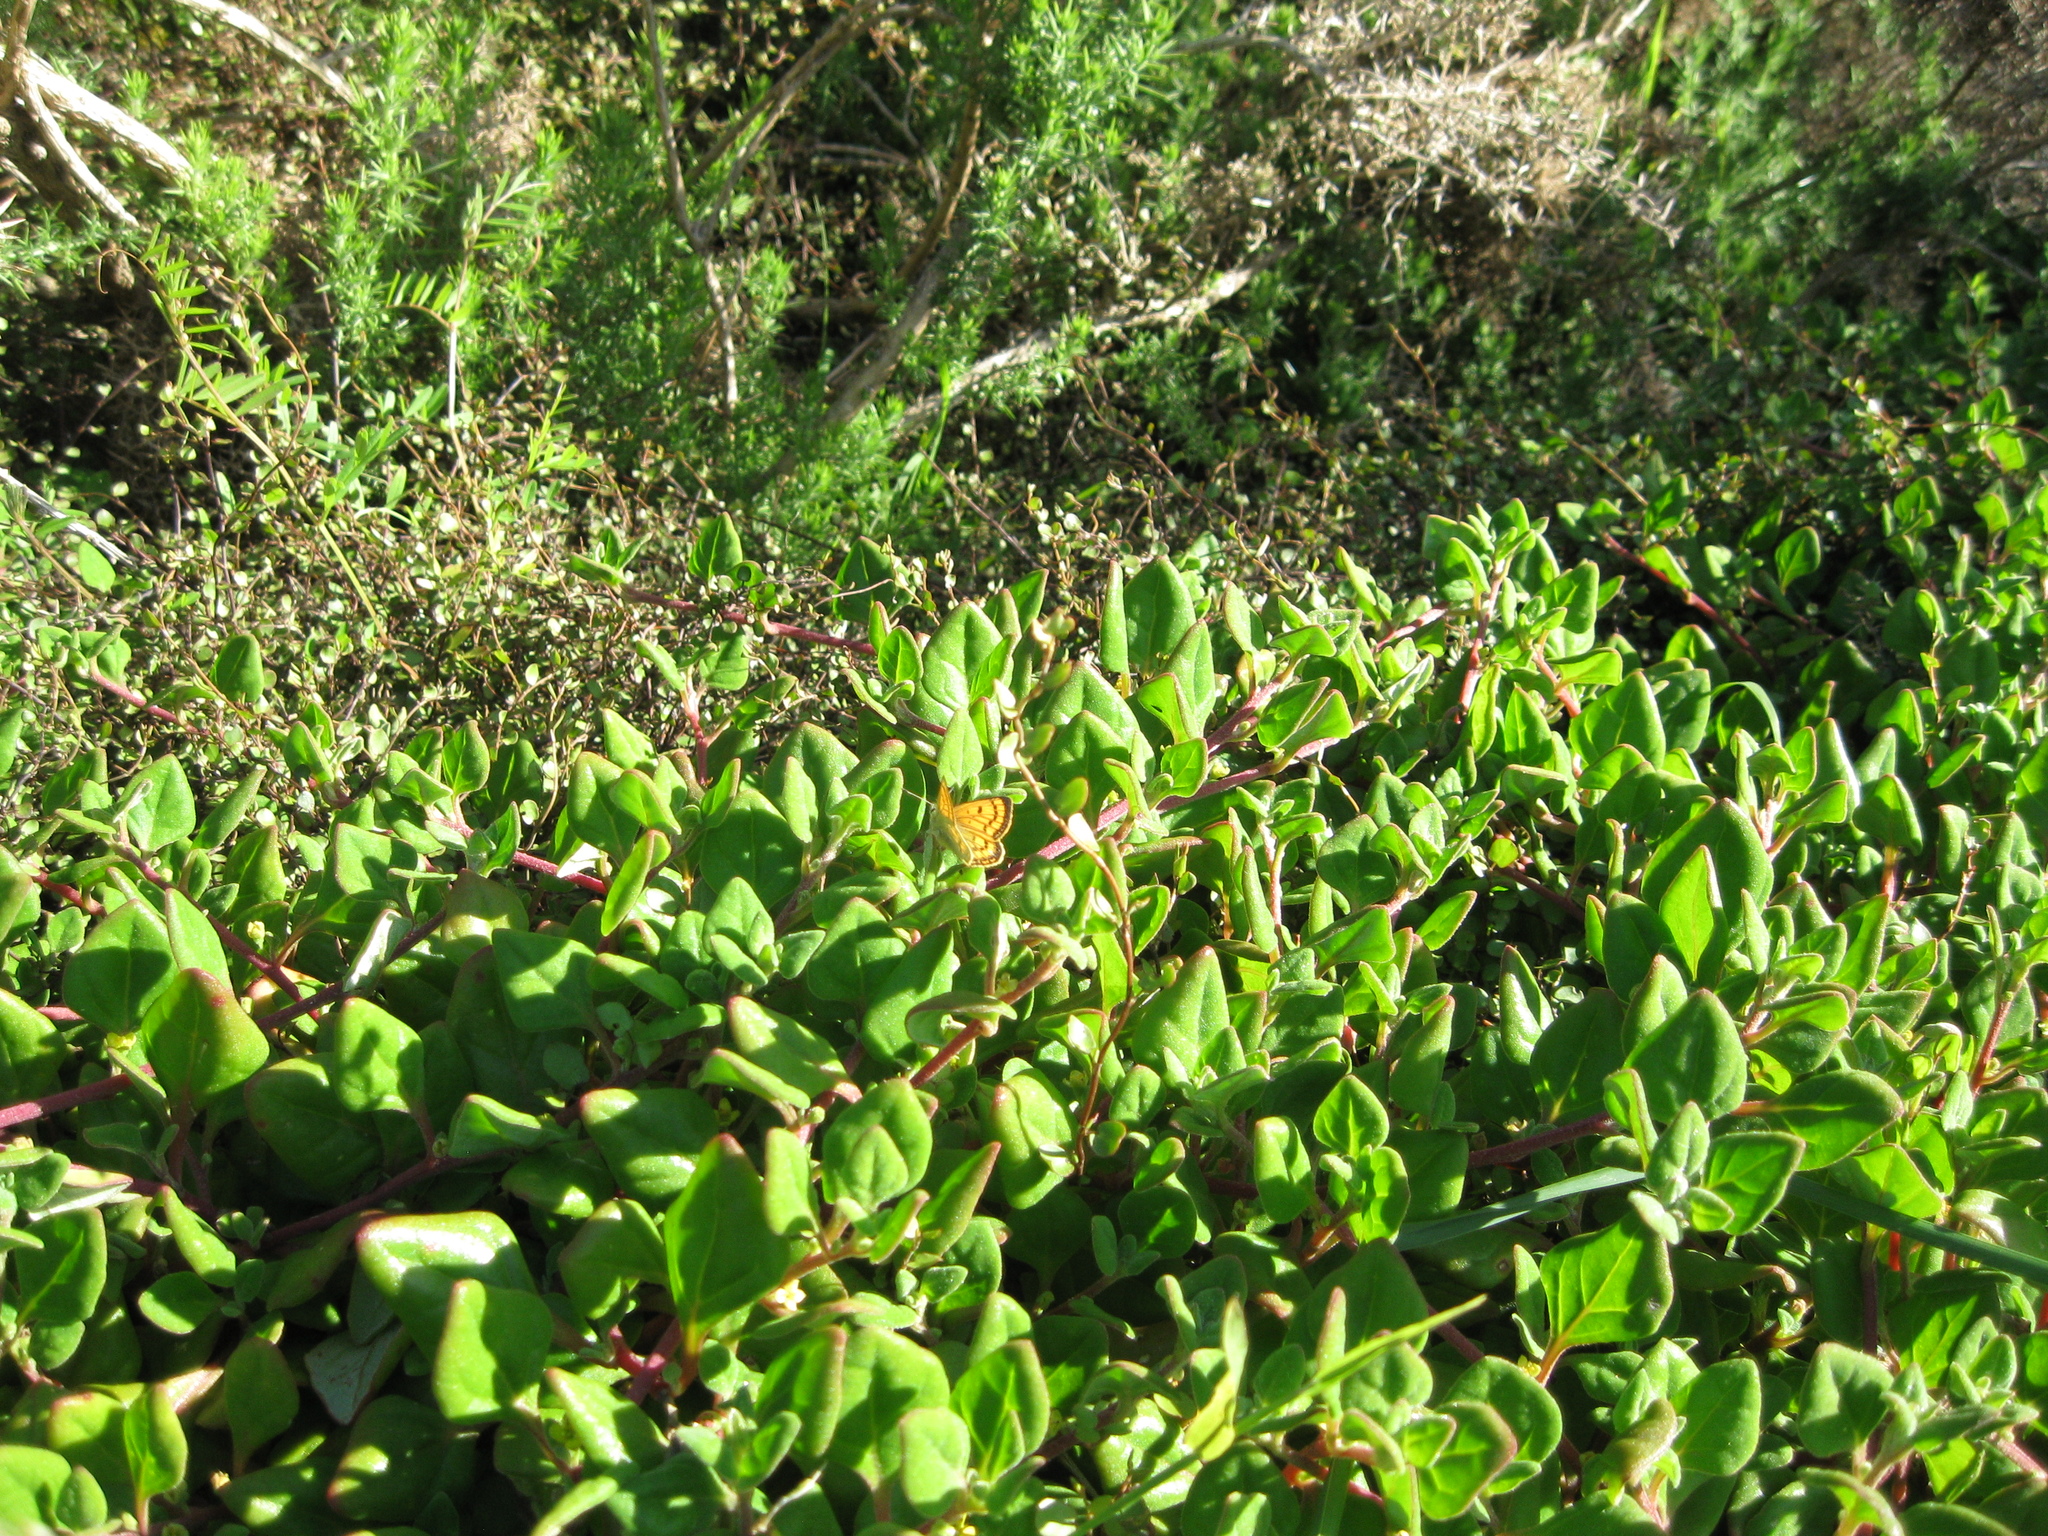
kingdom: Plantae
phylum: Tracheophyta
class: Magnoliopsida
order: Caryophyllales
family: Aizoaceae
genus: Tetragonia
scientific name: Tetragonia implexicoma
